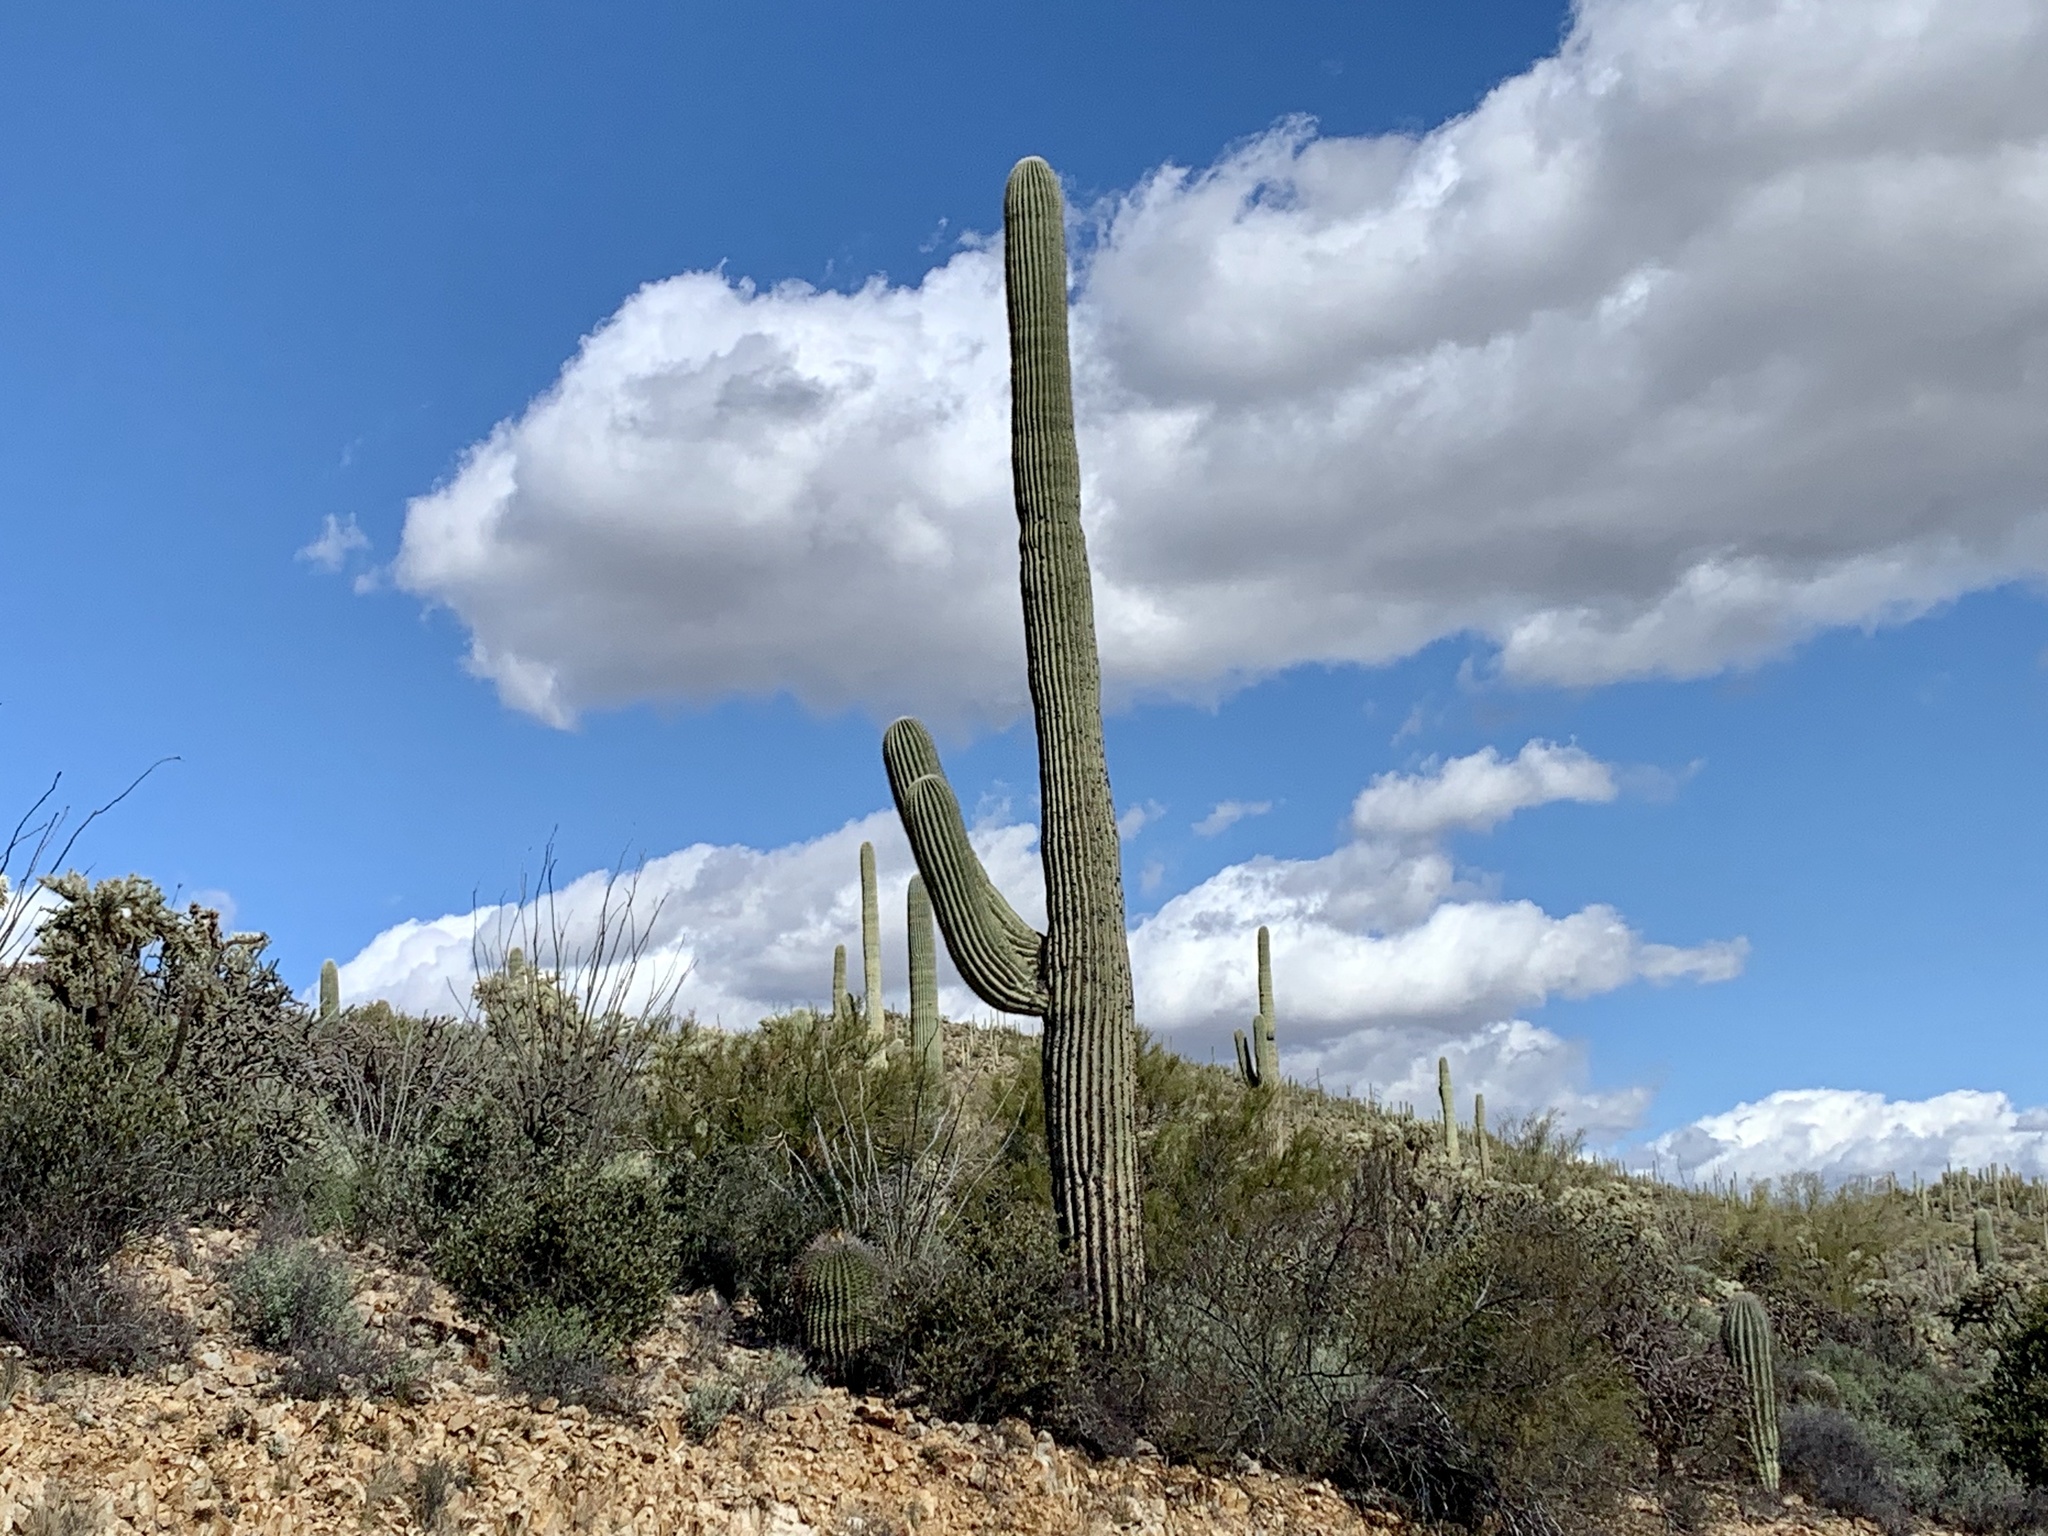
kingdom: Plantae
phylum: Tracheophyta
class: Magnoliopsida
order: Caryophyllales
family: Cactaceae
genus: Carnegiea
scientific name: Carnegiea gigantea
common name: Saguaro
